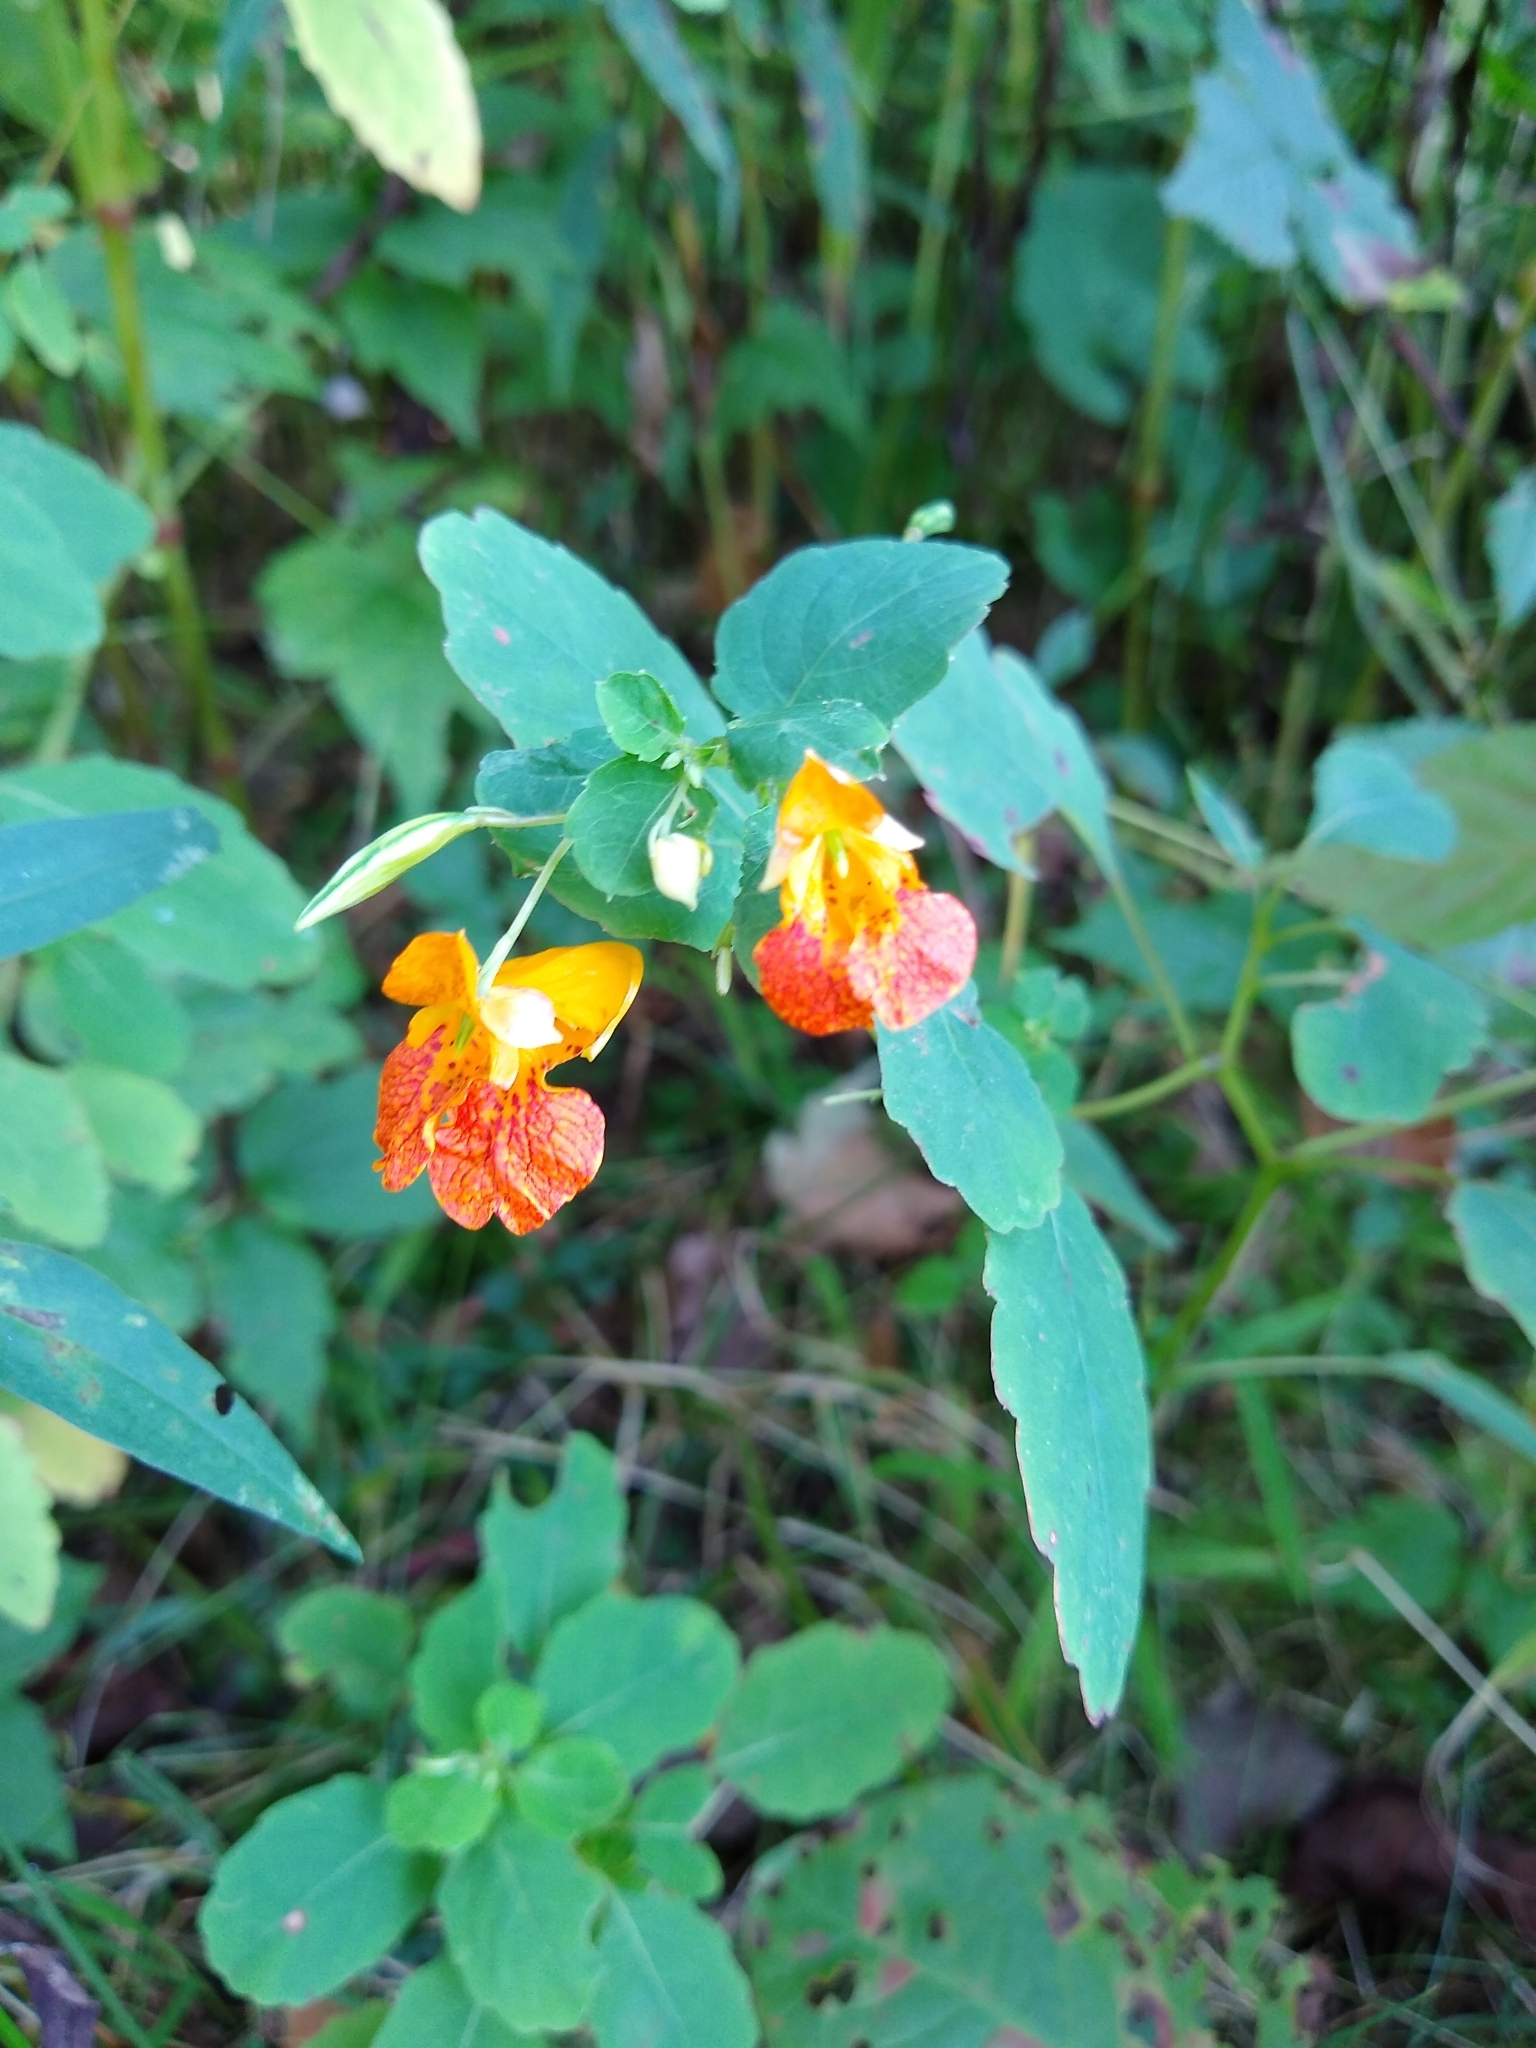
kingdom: Plantae
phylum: Tracheophyta
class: Magnoliopsida
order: Ericales
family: Balsaminaceae
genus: Impatiens
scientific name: Impatiens capensis
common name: Orange balsam
